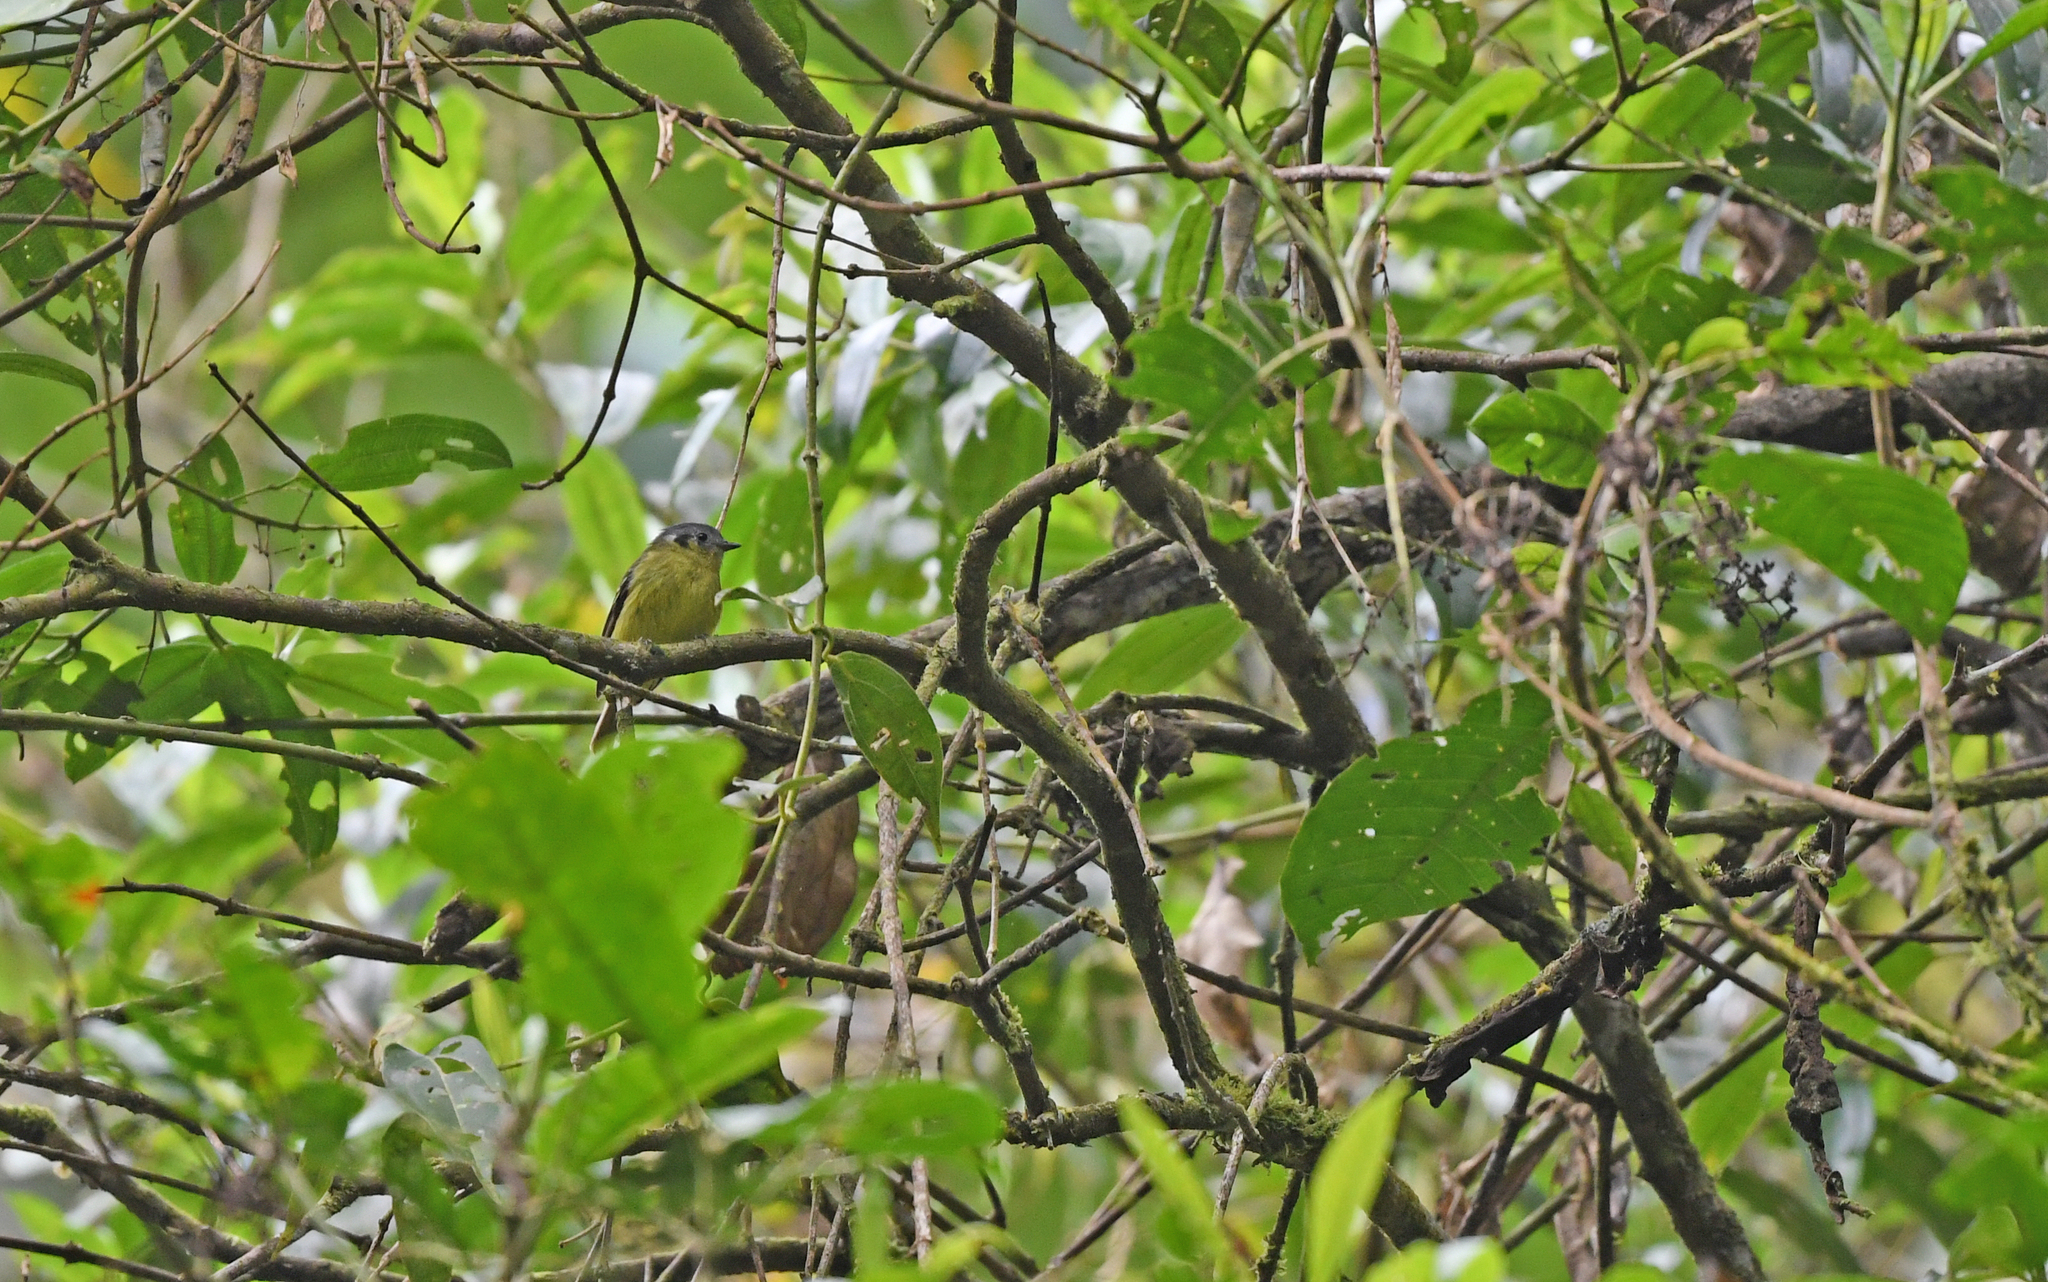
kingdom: Animalia
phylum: Chordata
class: Aves
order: Passeriformes
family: Tyrannidae
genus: Phyllomyias
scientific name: Phyllomyias cinereiceps
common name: Ashy-headed tyrannulet
